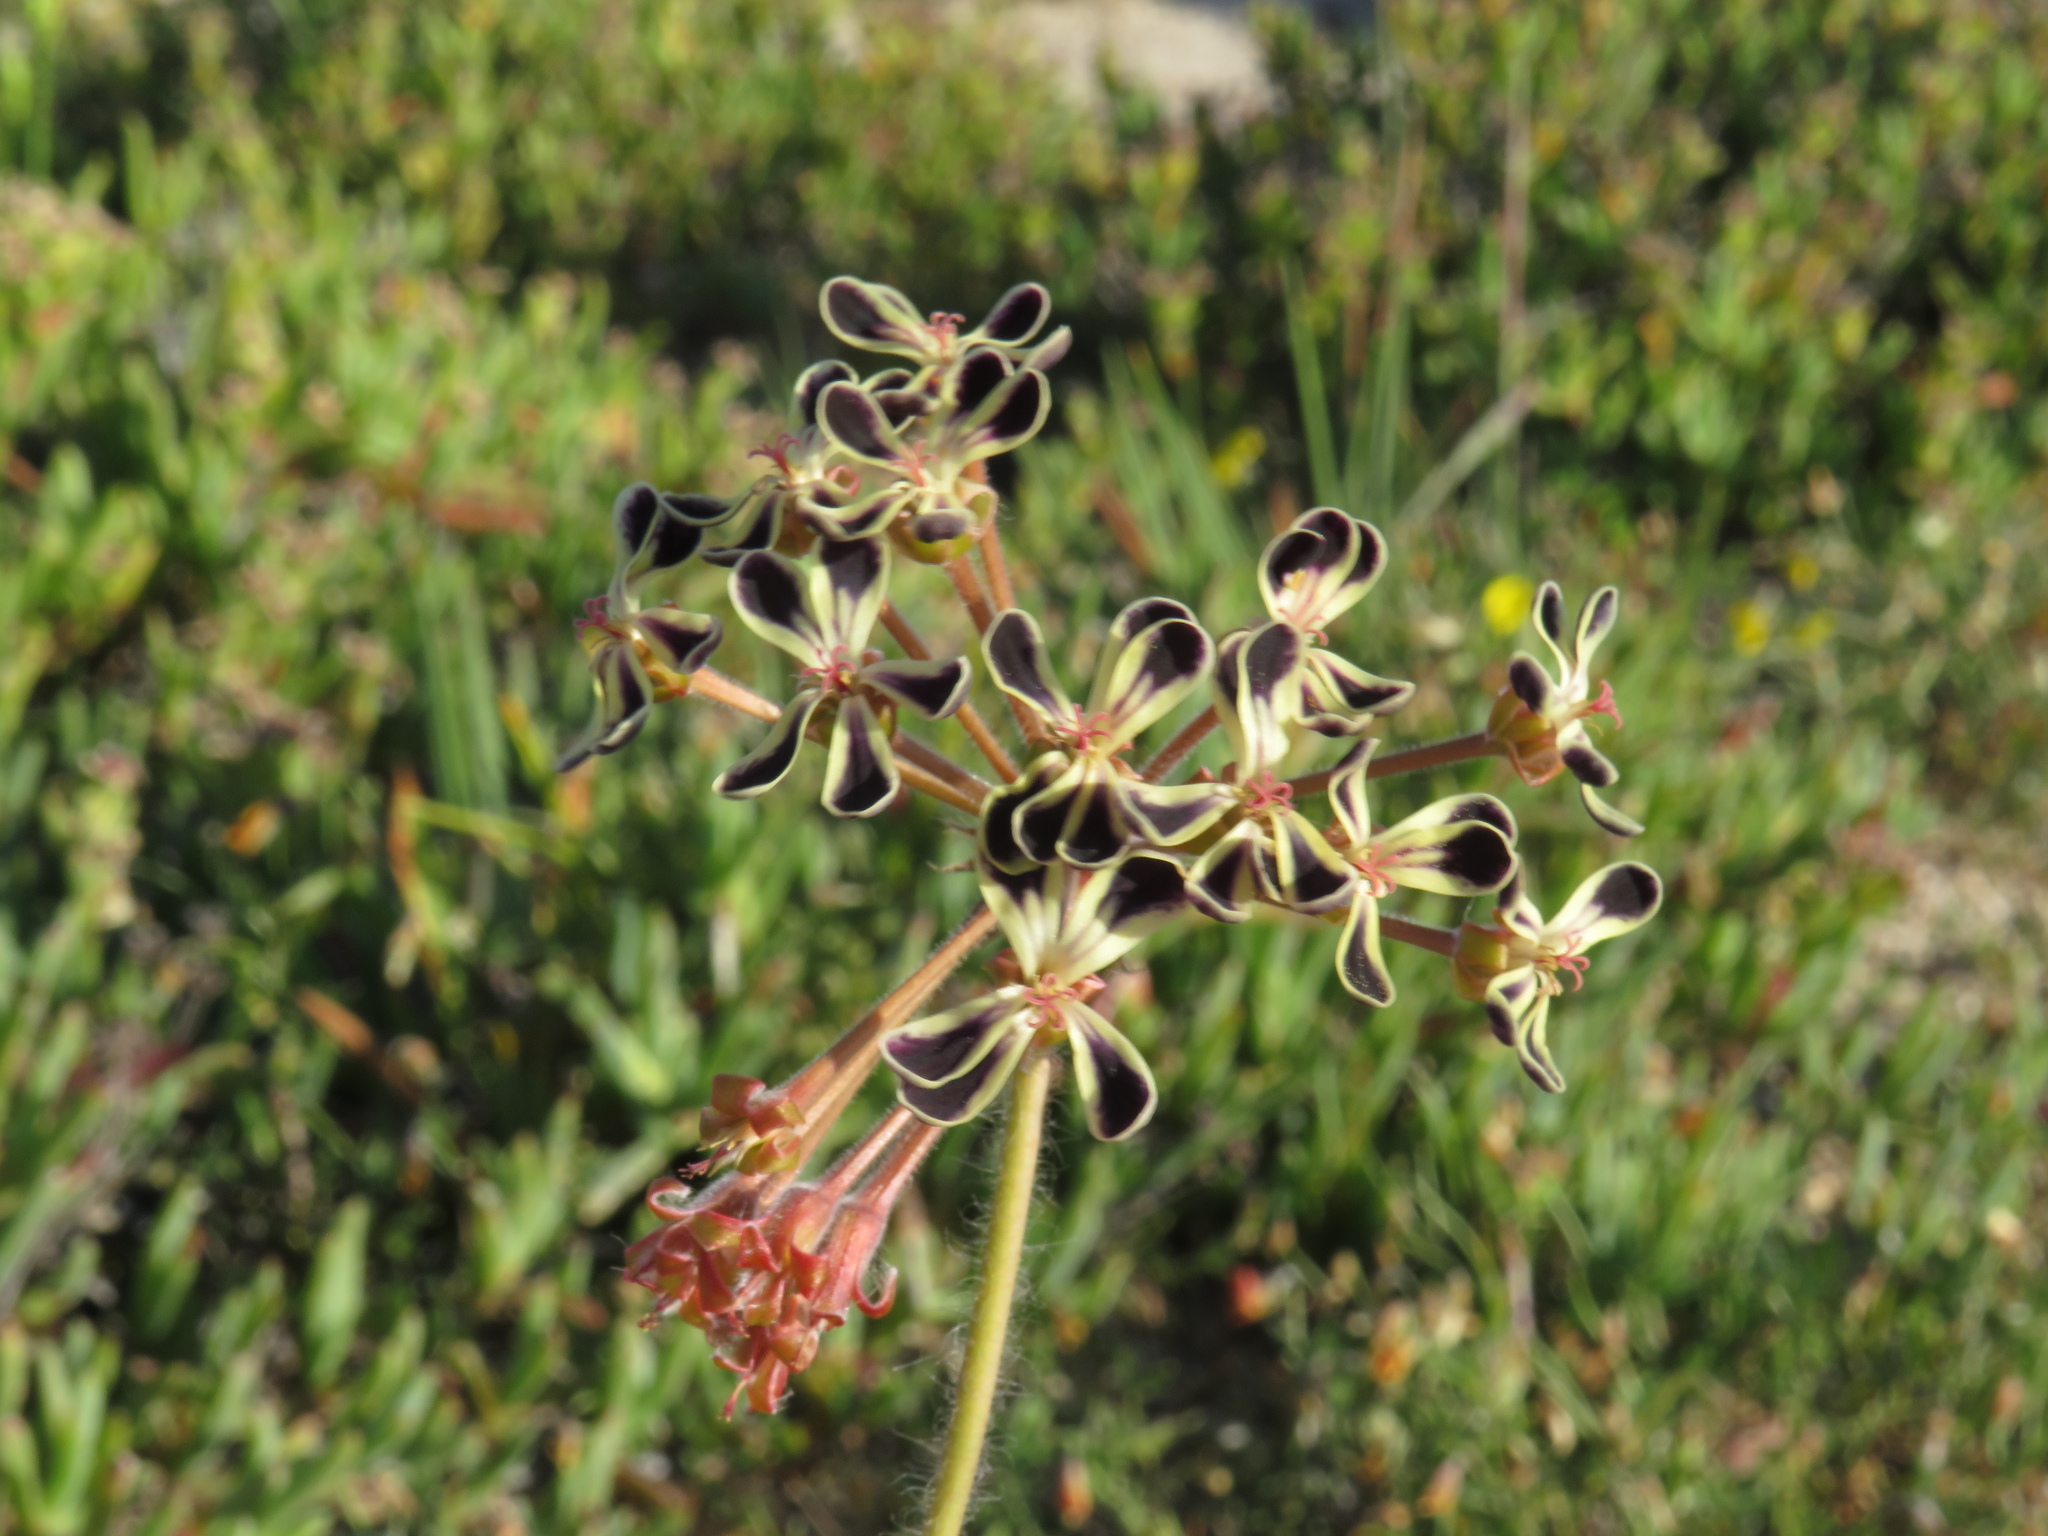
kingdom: Plantae
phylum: Tracheophyta
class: Magnoliopsida
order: Geraniales
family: Geraniaceae
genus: Pelargonium
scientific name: Pelargonium lobatum
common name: Vine-leaf pelargonium
